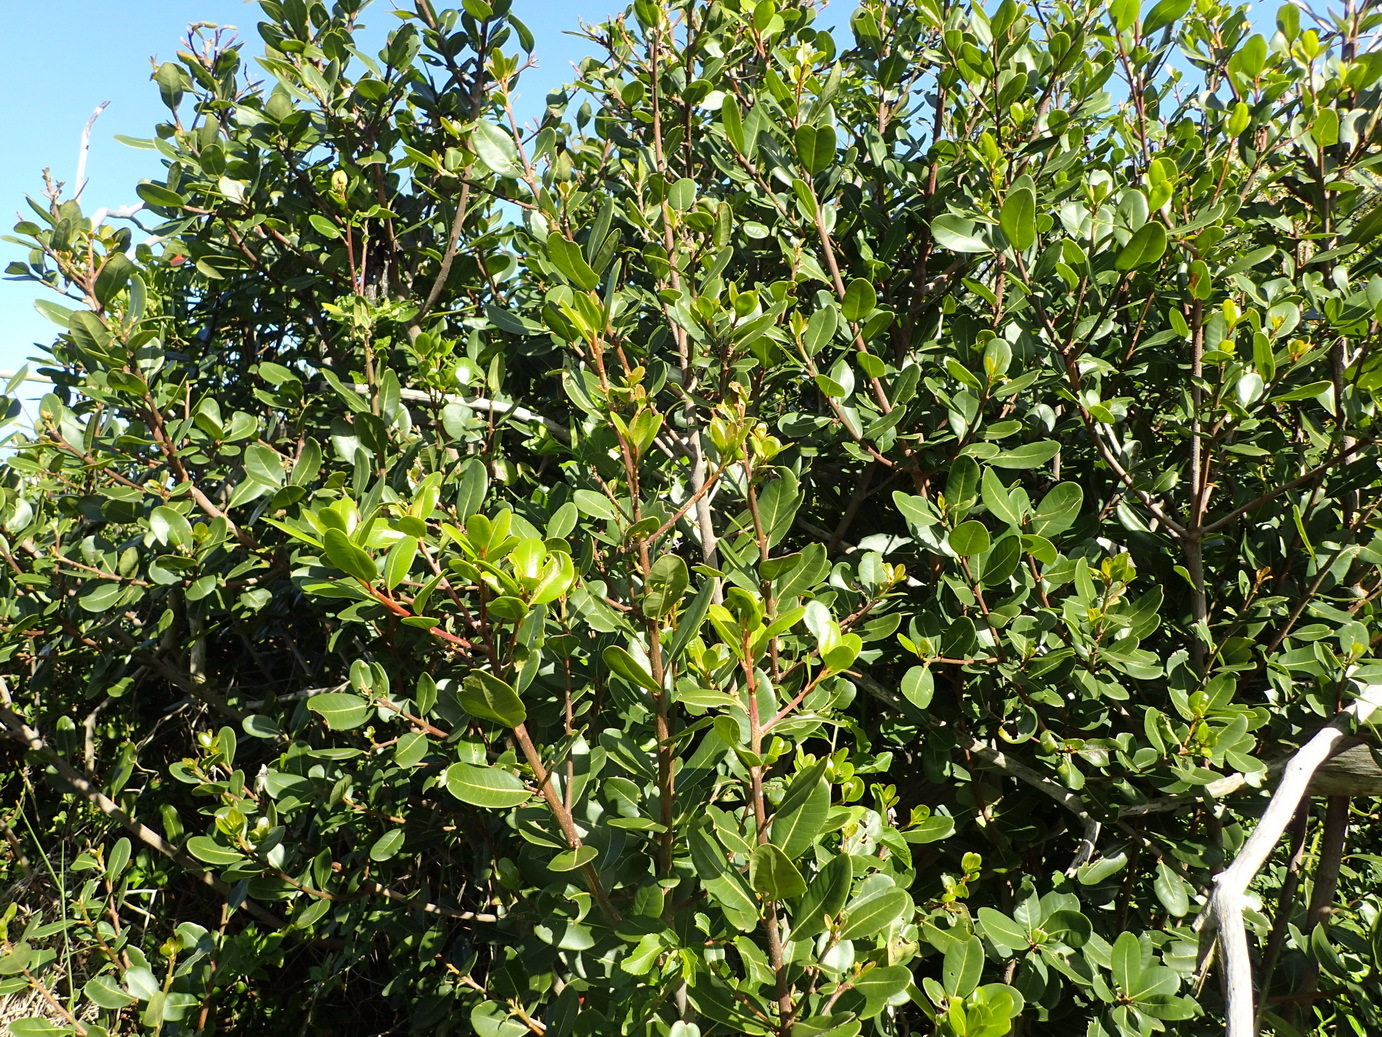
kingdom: Plantae
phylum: Tracheophyta
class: Magnoliopsida
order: Ericales
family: Sapotaceae
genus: Sideroxylon
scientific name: Sideroxylon inerme
